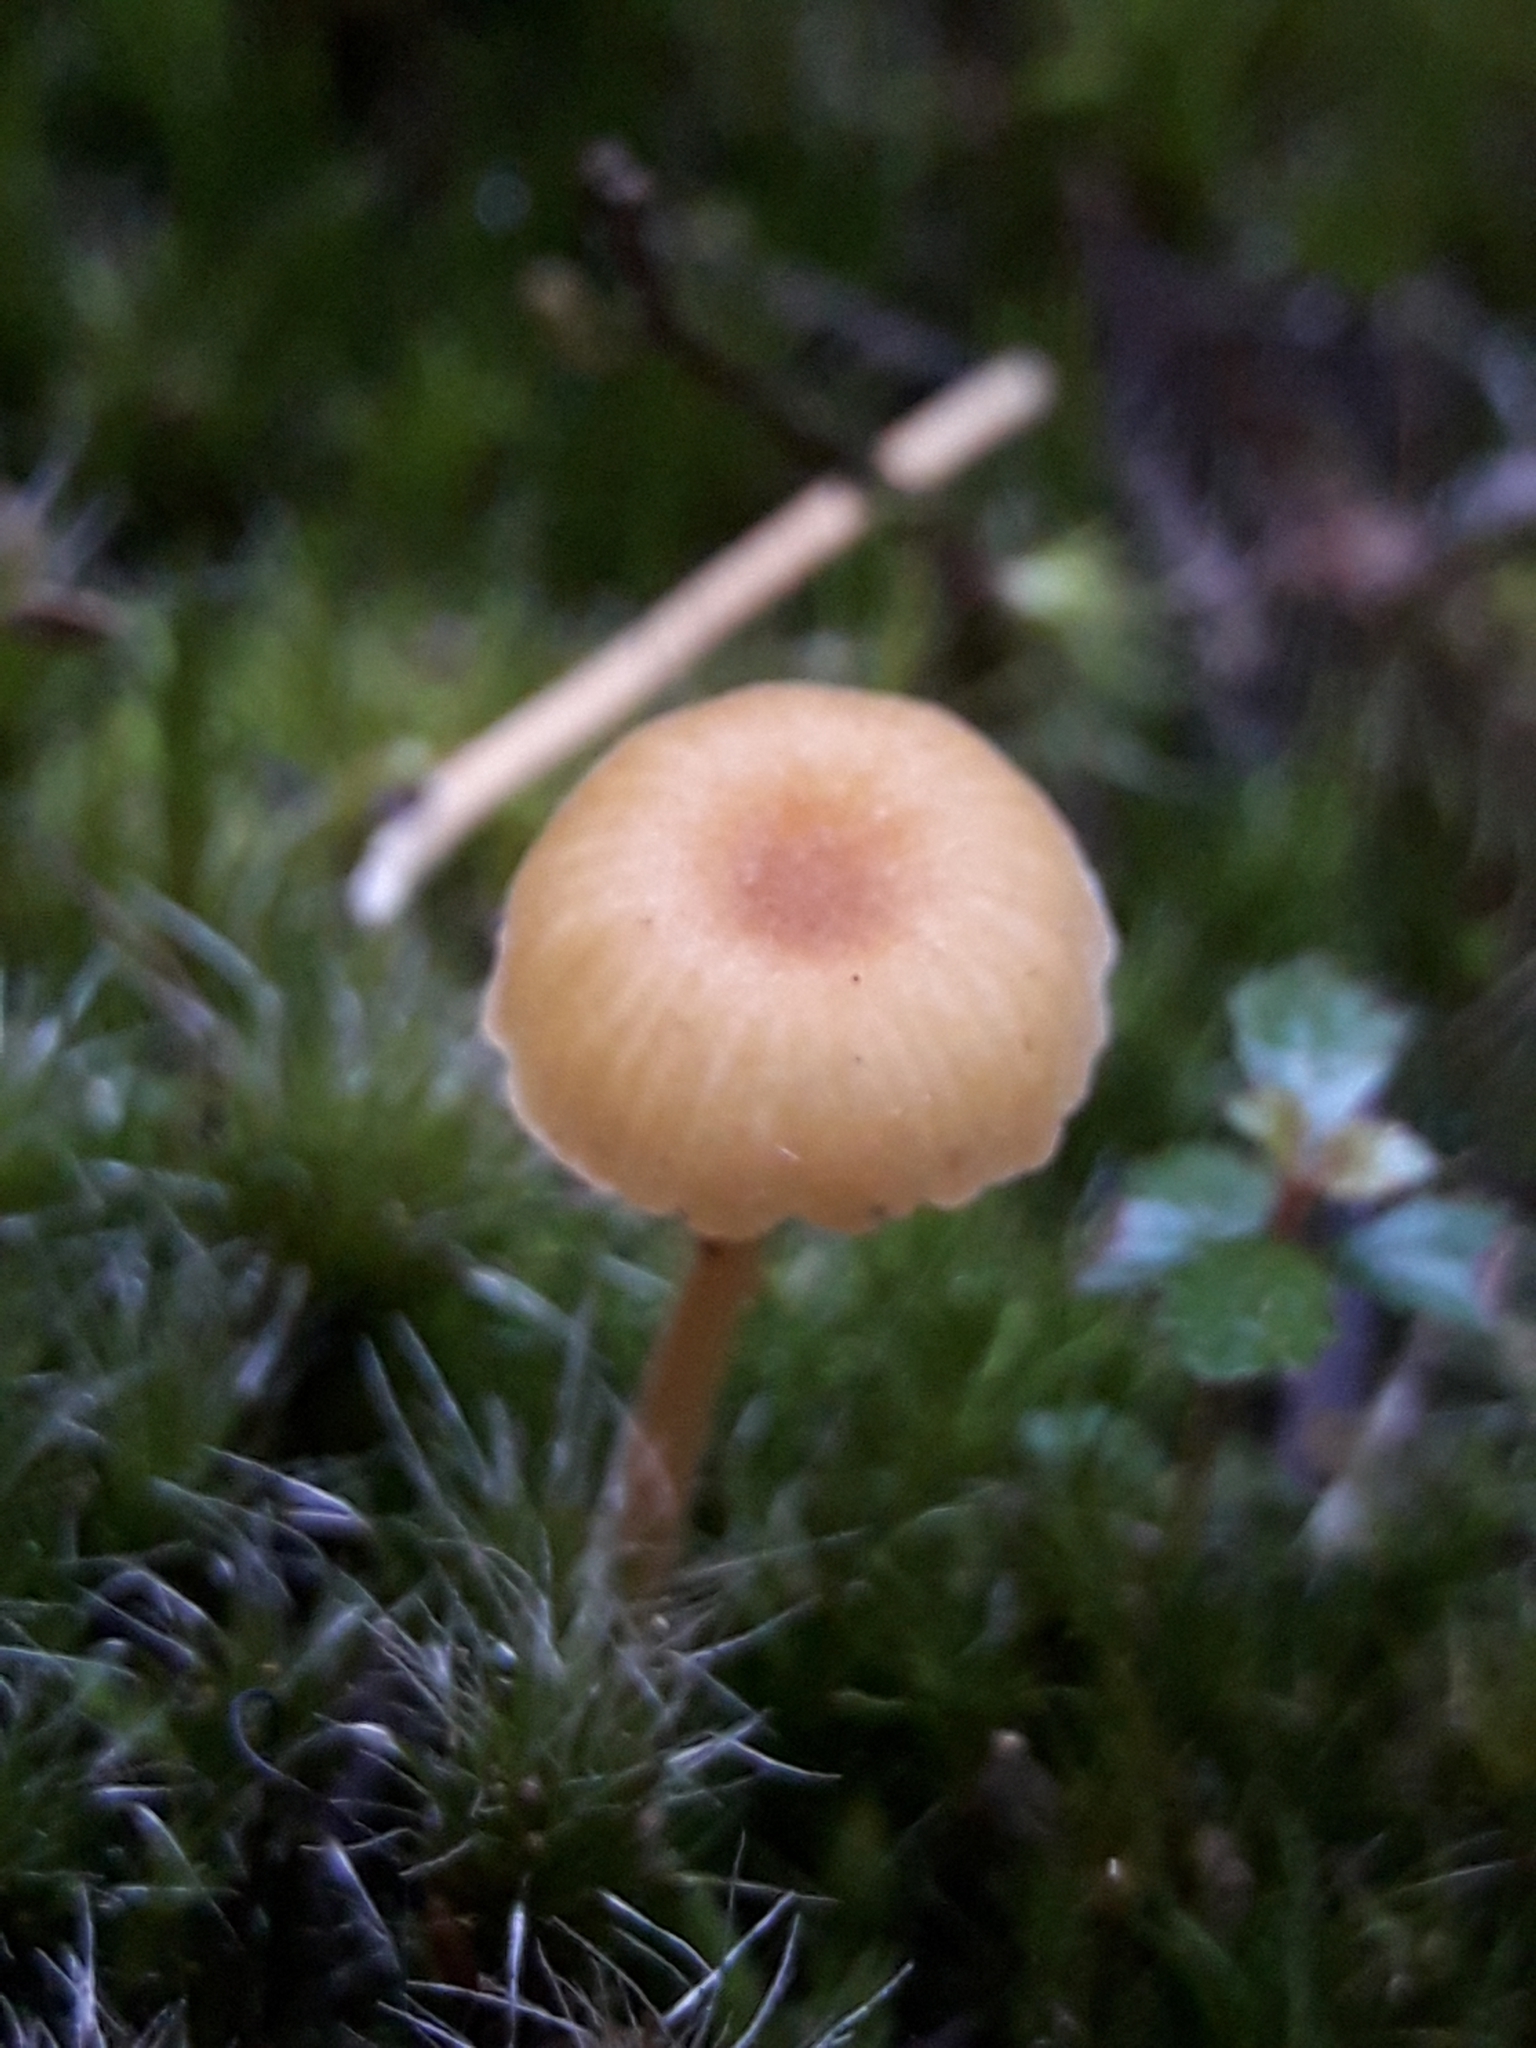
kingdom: Fungi
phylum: Basidiomycota
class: Agaricomycetes
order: Hymenochaetales
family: Rickenellaceae
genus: Rickenella
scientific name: Rickenella fibula
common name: Orange mosscap
